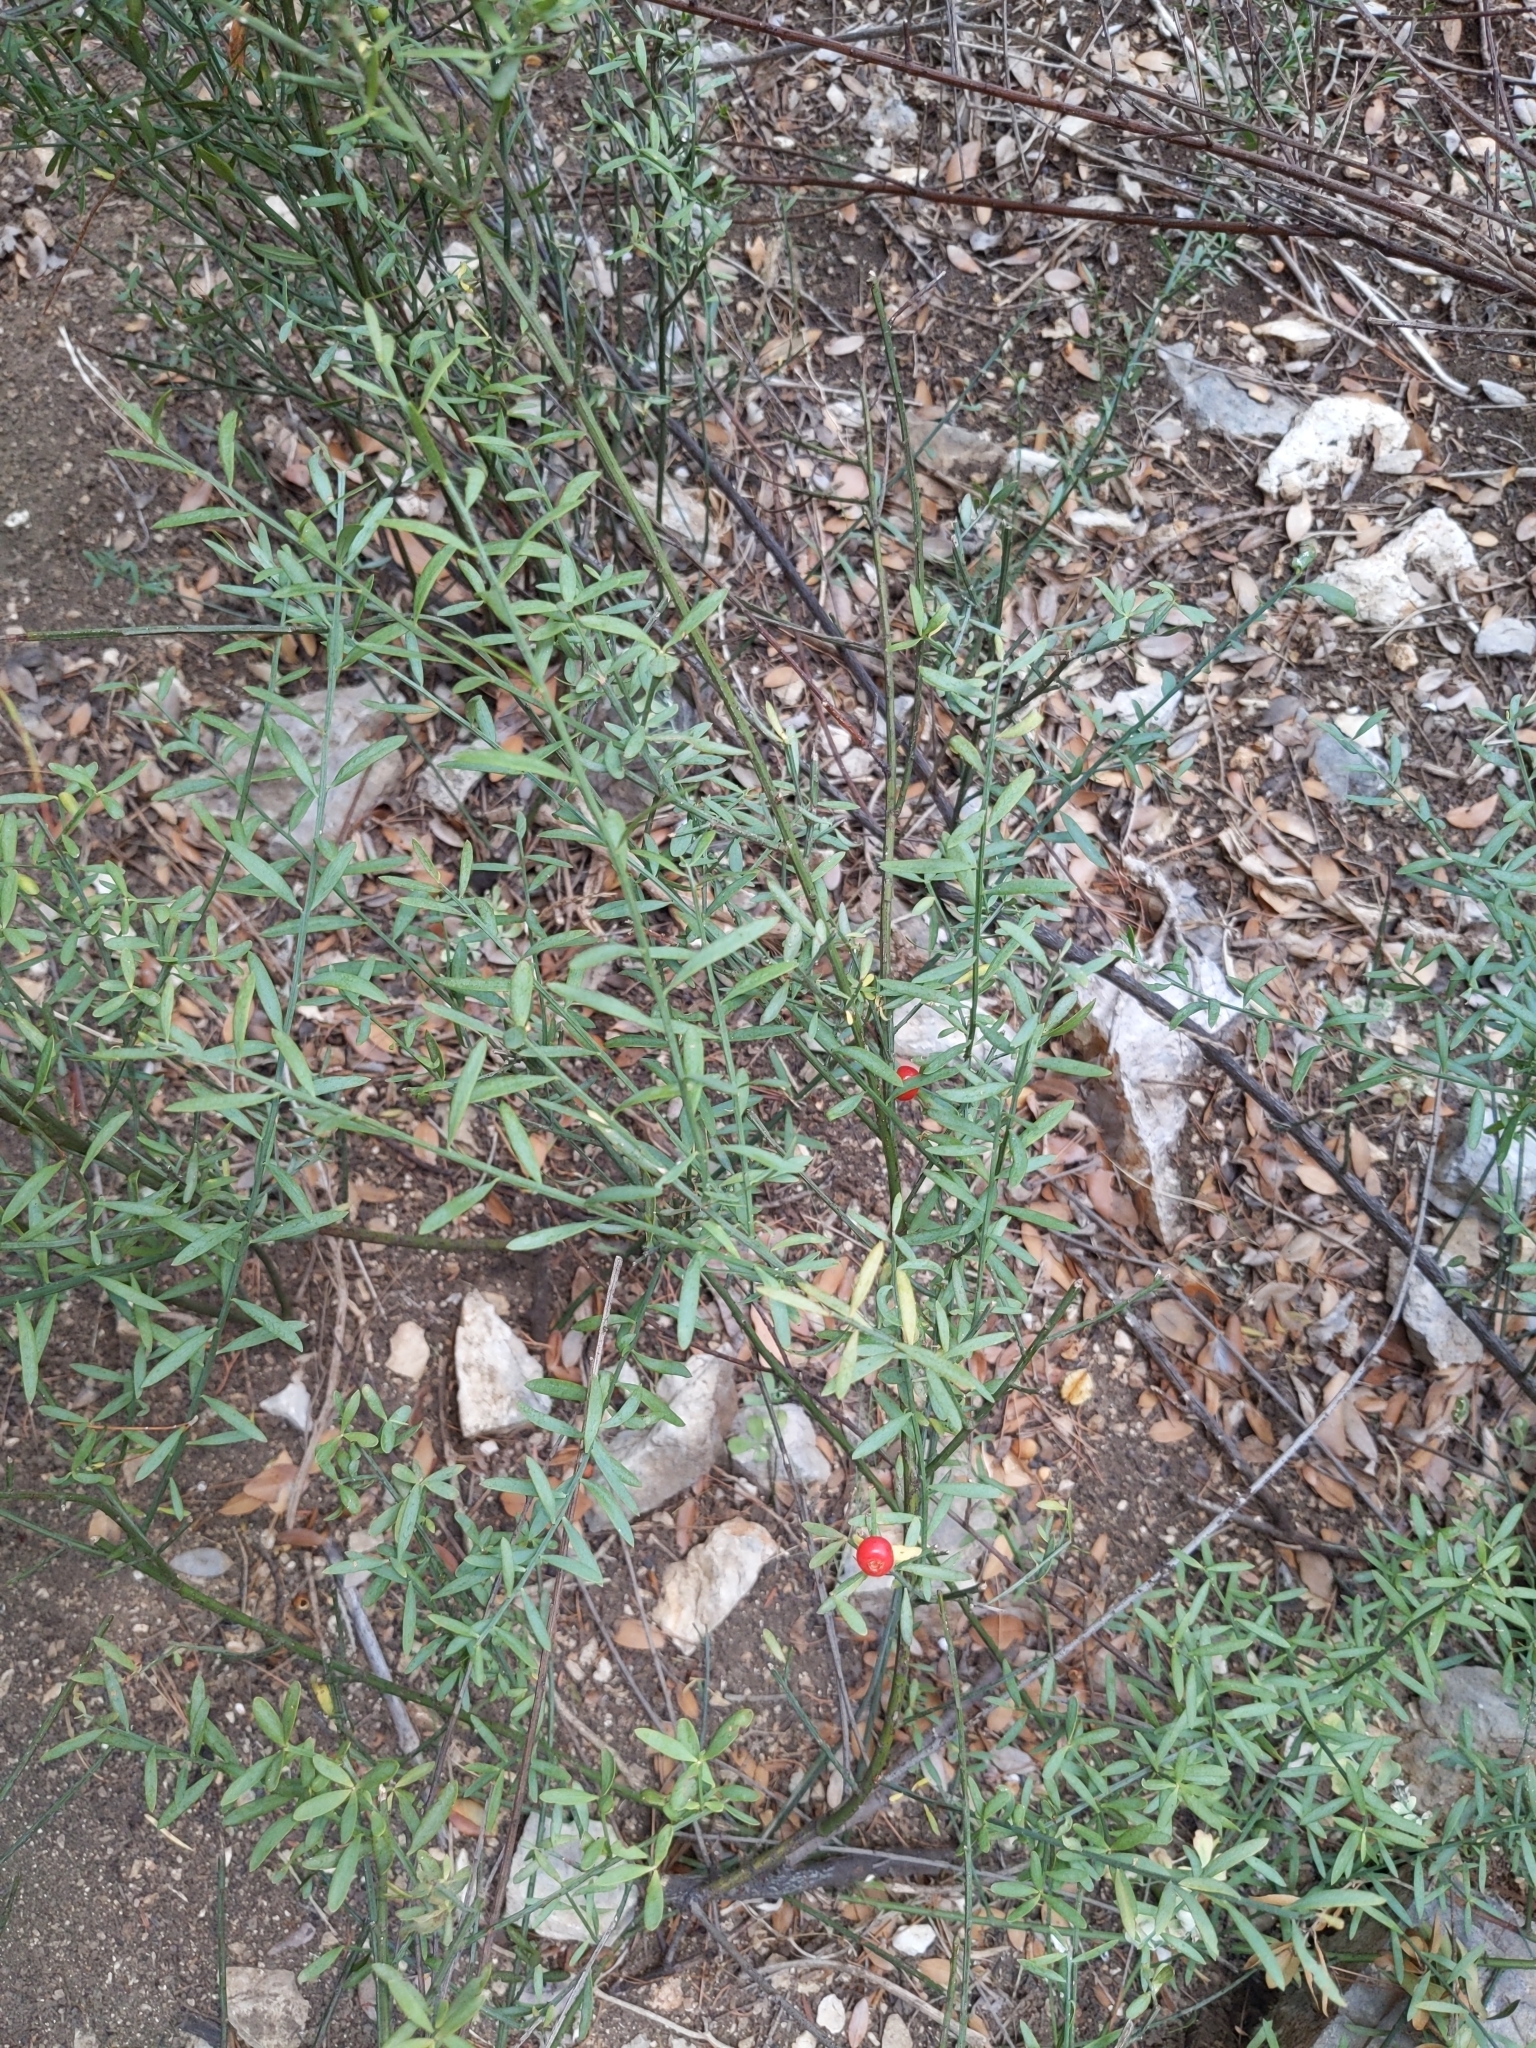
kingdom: Plantae
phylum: Tracheophyta
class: Magnoliopsida
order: Santalales
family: Santalaceae
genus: Osyris
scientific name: Osyris alba
